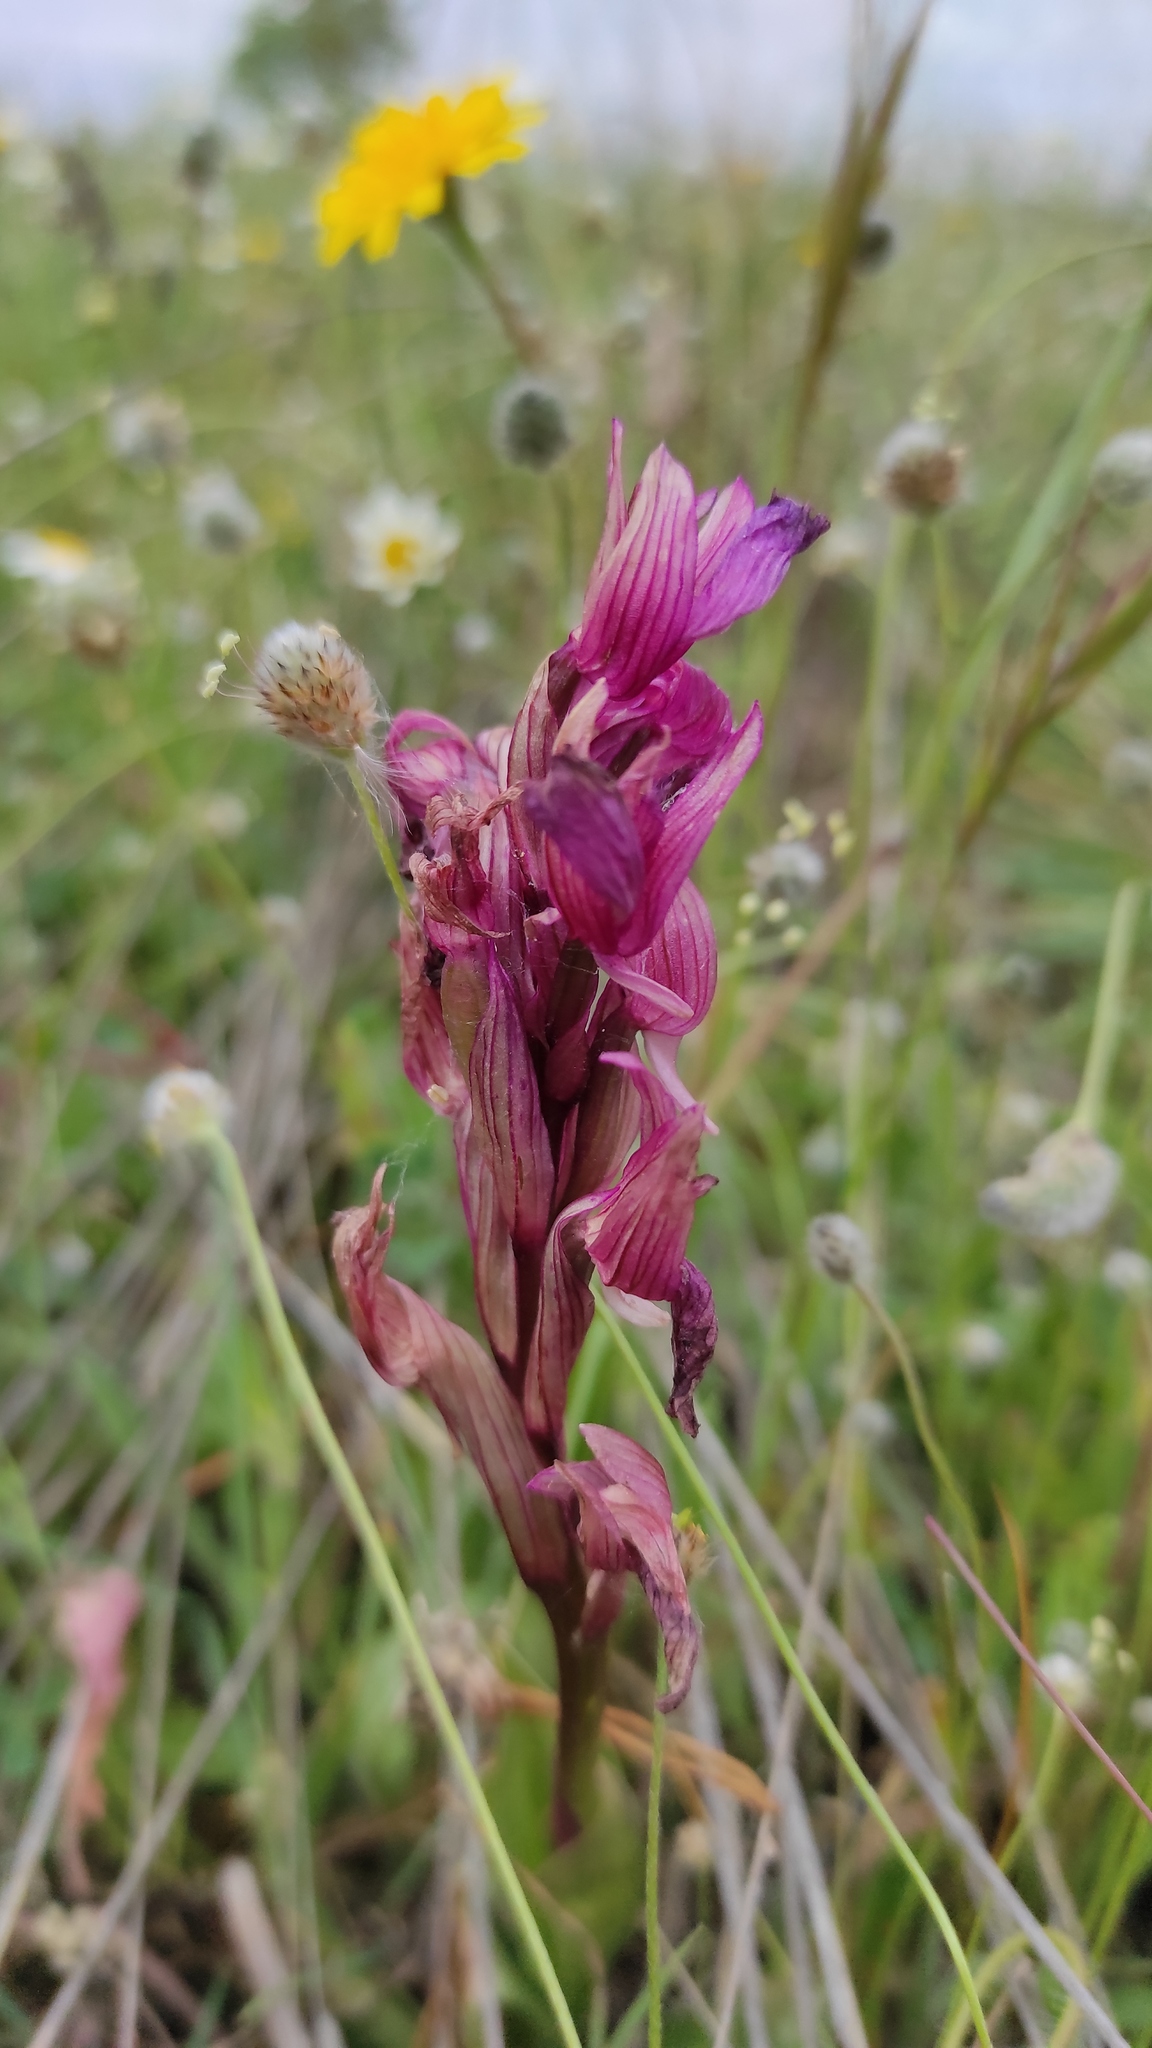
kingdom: Plantae
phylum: Tracheophyta
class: Liliopsida
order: Asparagales
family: Orchidaceae
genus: Anacamptis
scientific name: Anacamptis papilionacea
